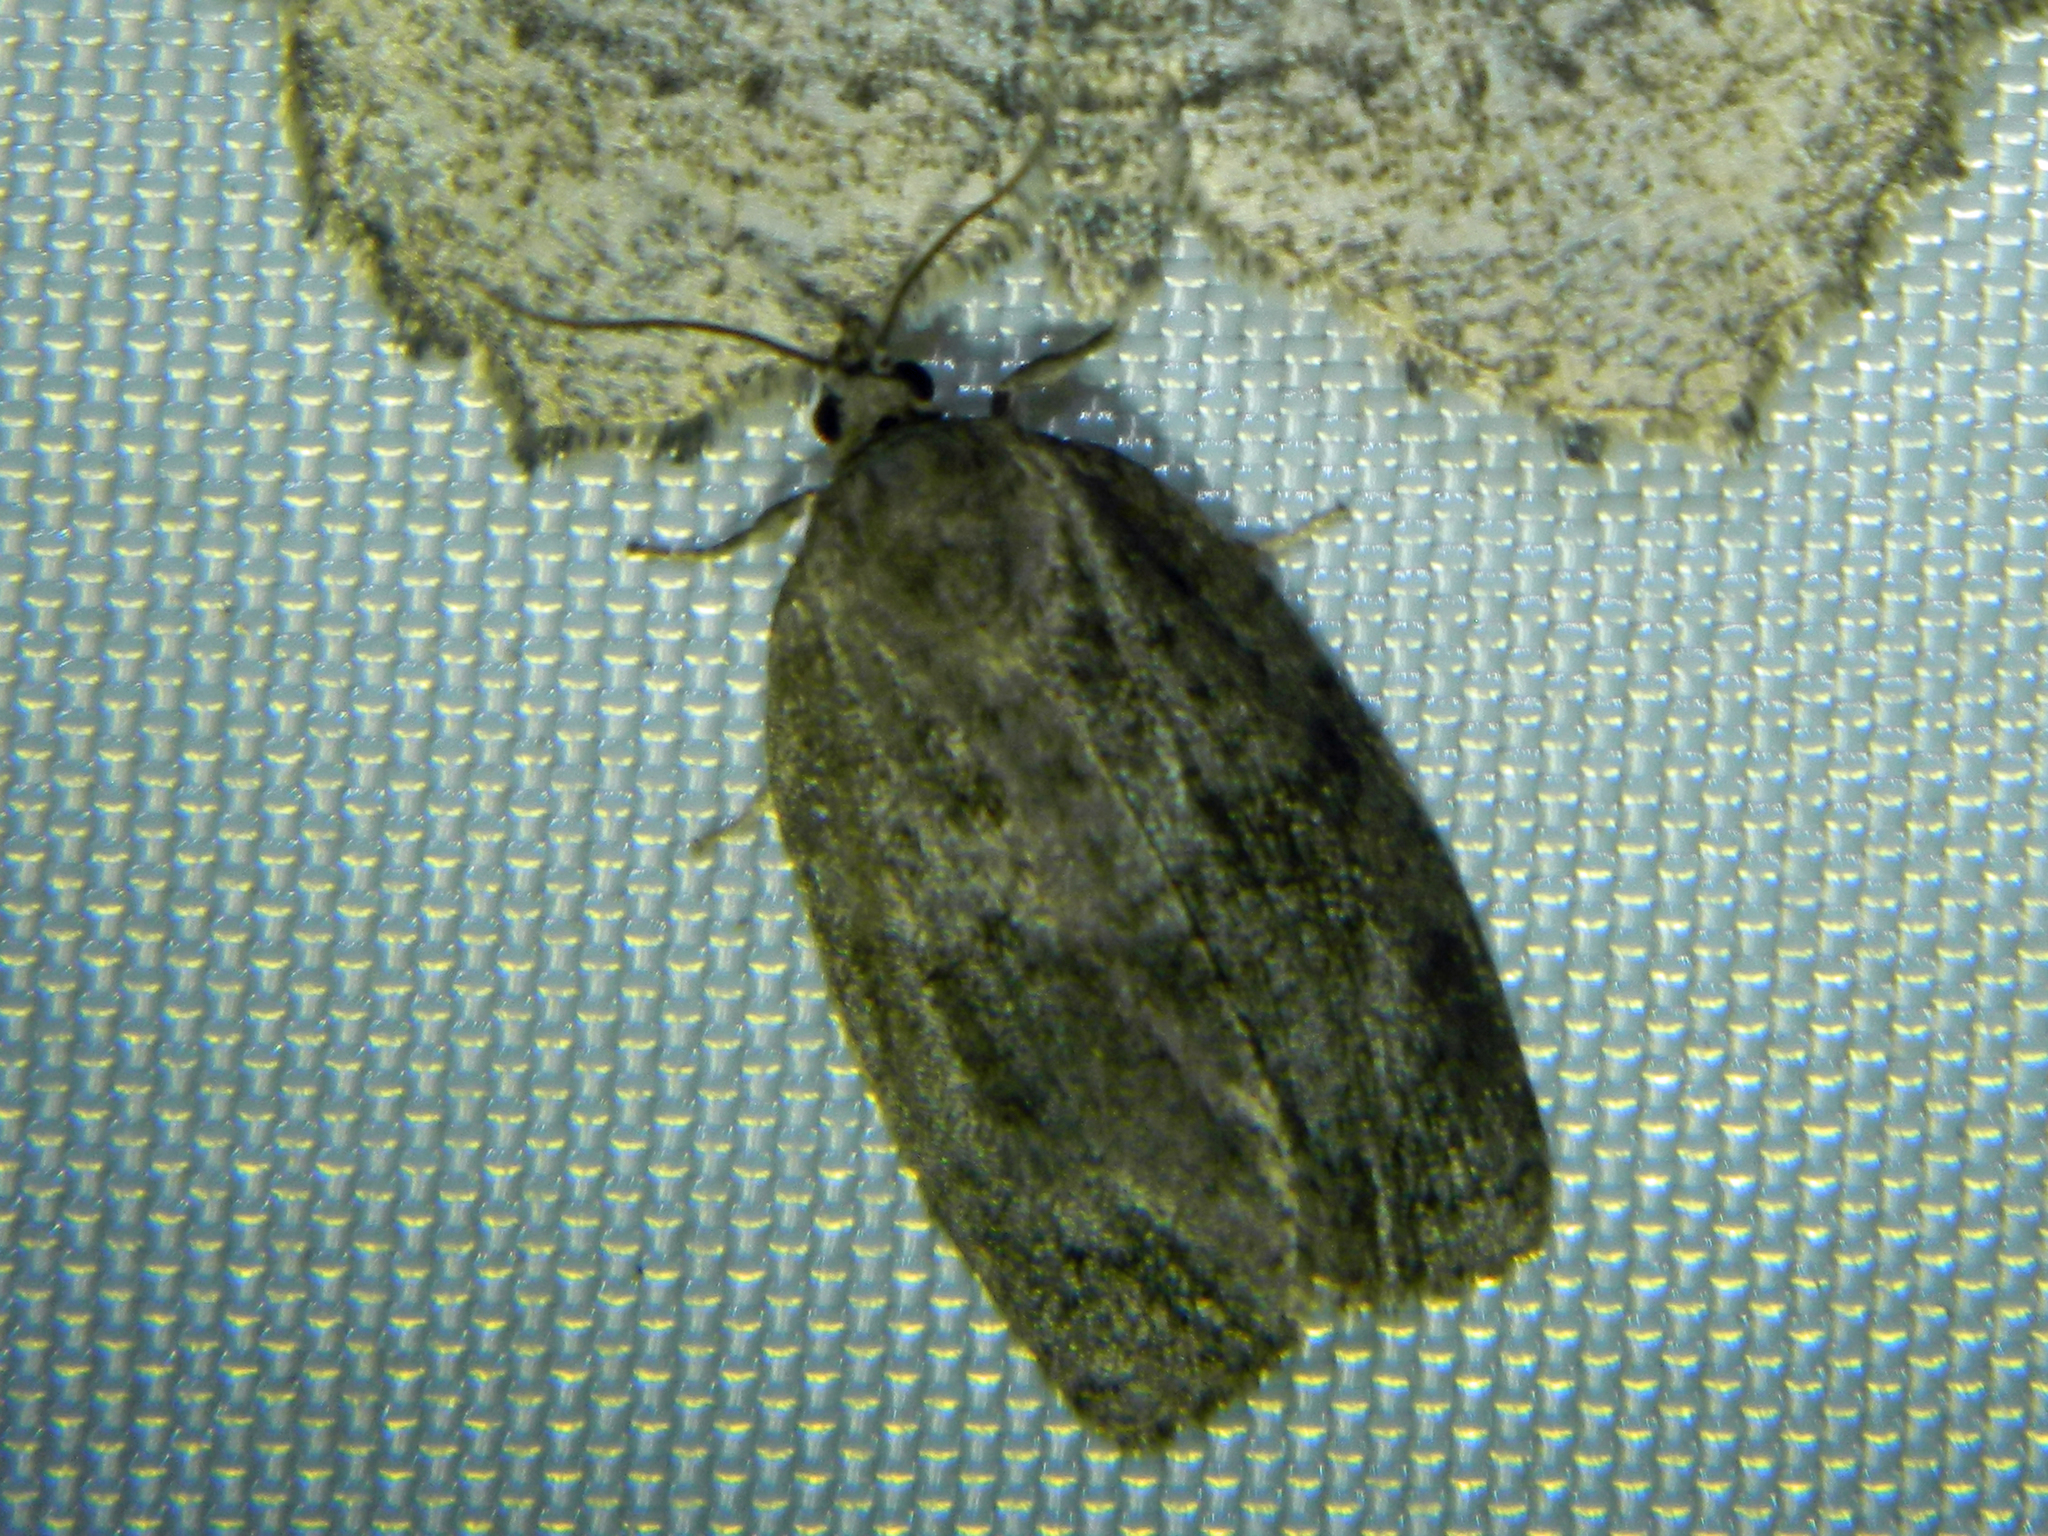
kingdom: Animalia
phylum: Arthropoda
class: Insecta
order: Lepidoptera
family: Tortricidae
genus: Choristoneura
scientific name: Choristoneura conflictana
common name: Large aspen tortrix
